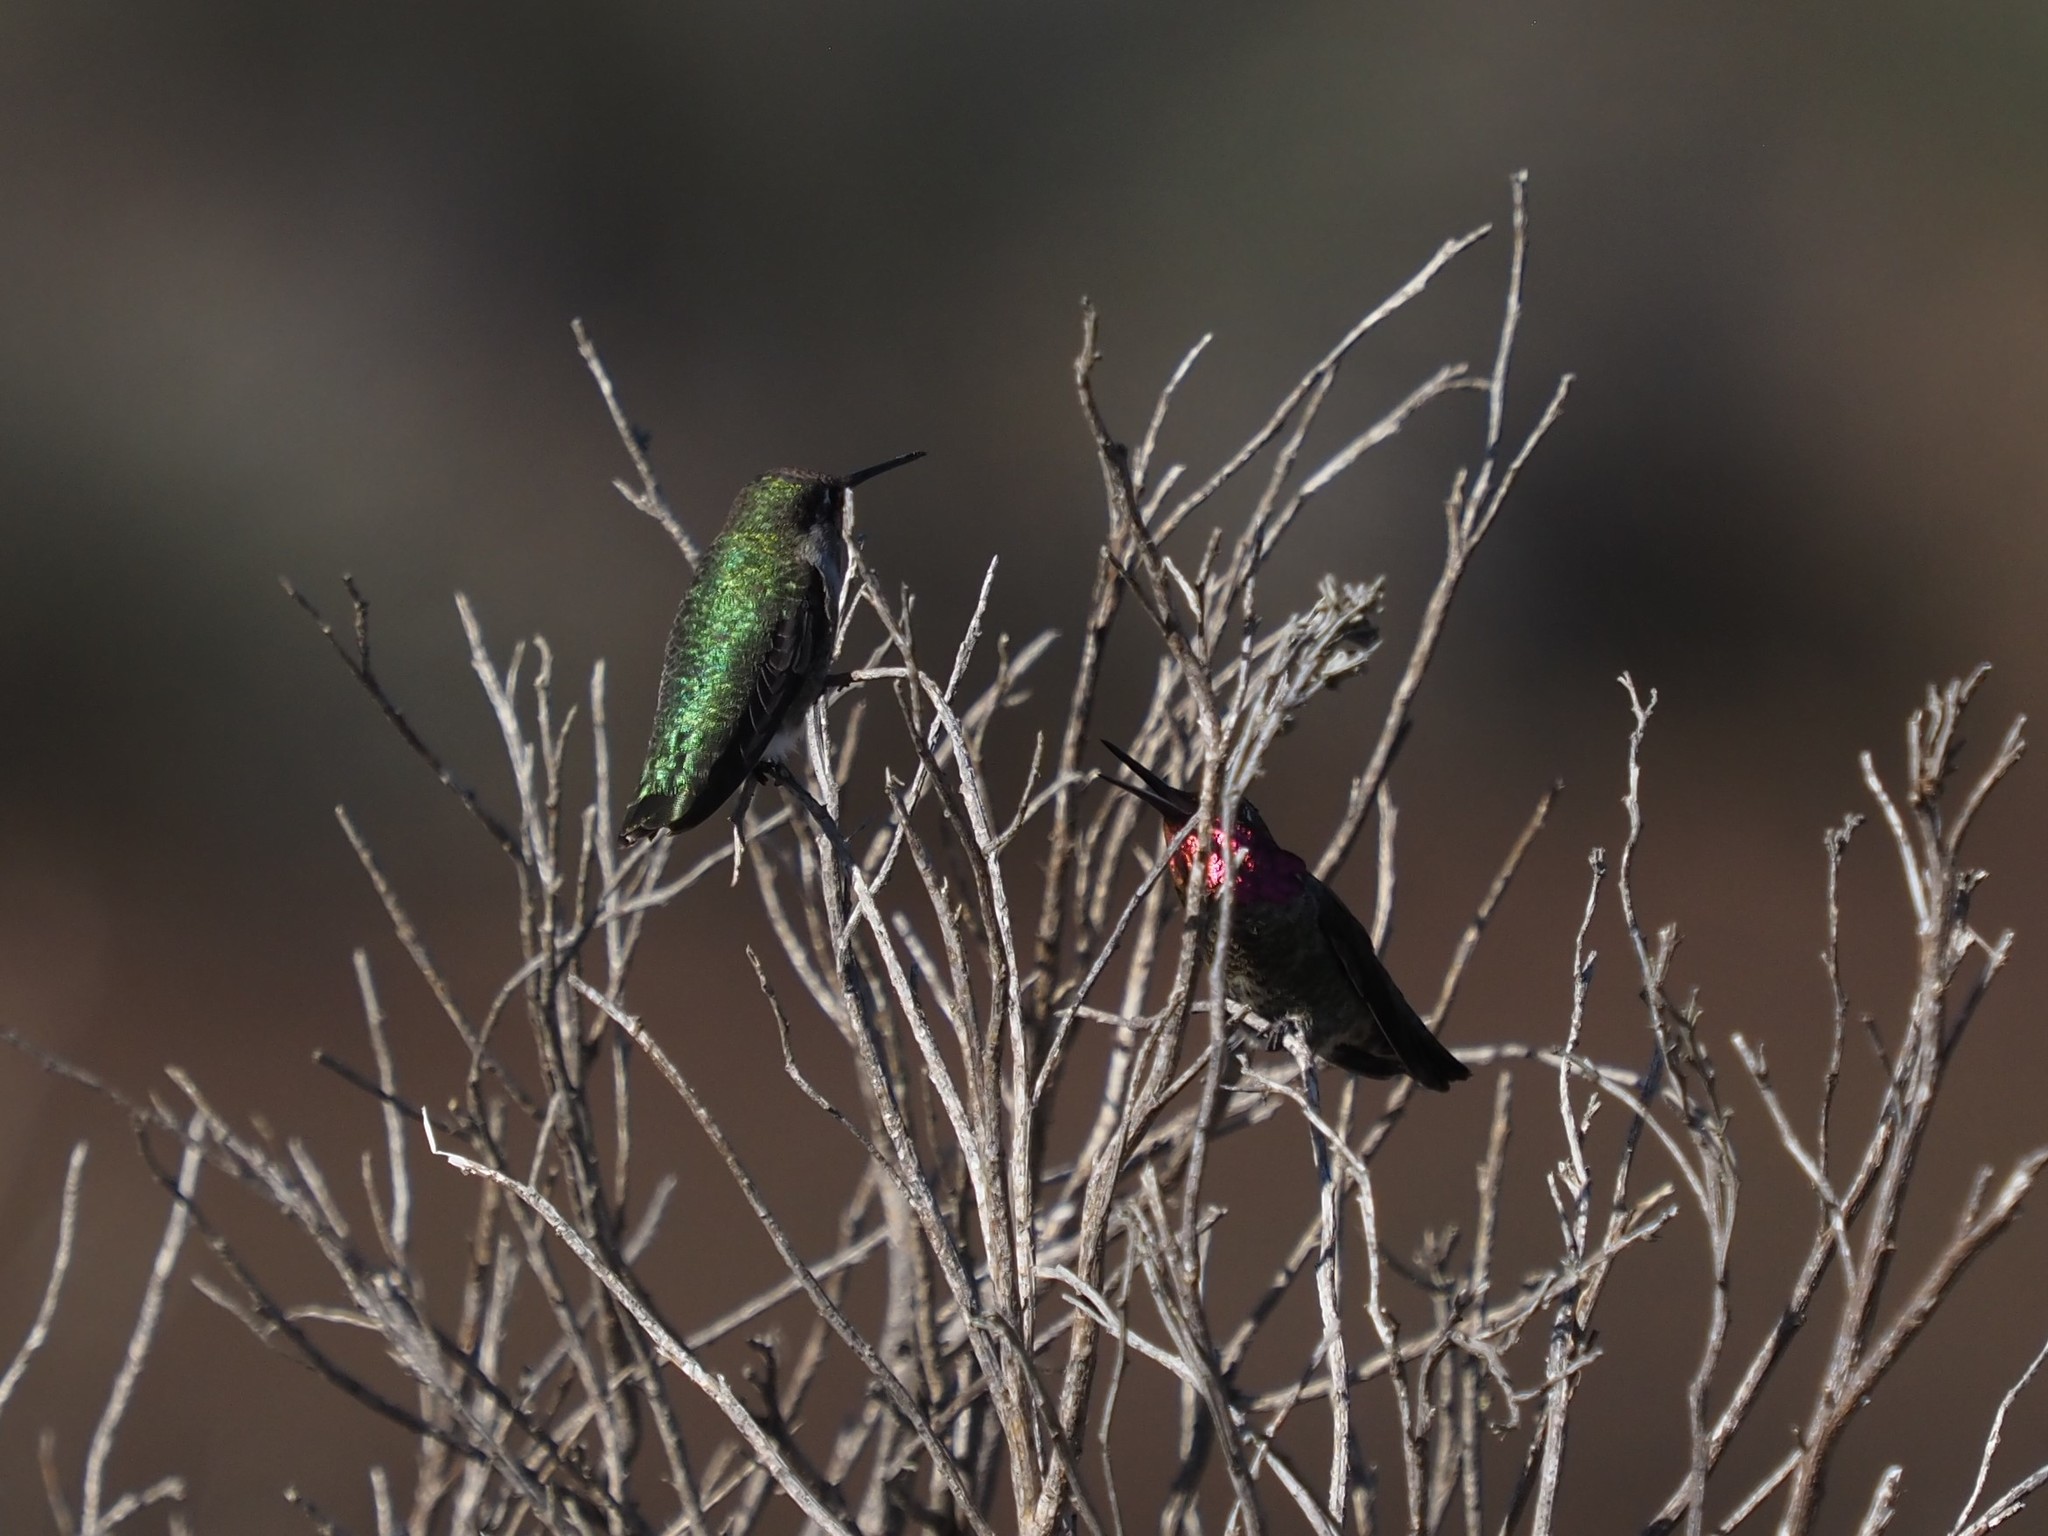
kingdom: Animalia
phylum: Chordata
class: Aves
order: Apodiformes
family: Trochilidae
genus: Calypte
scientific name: Calypte anna
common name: Anna's hummingbird
